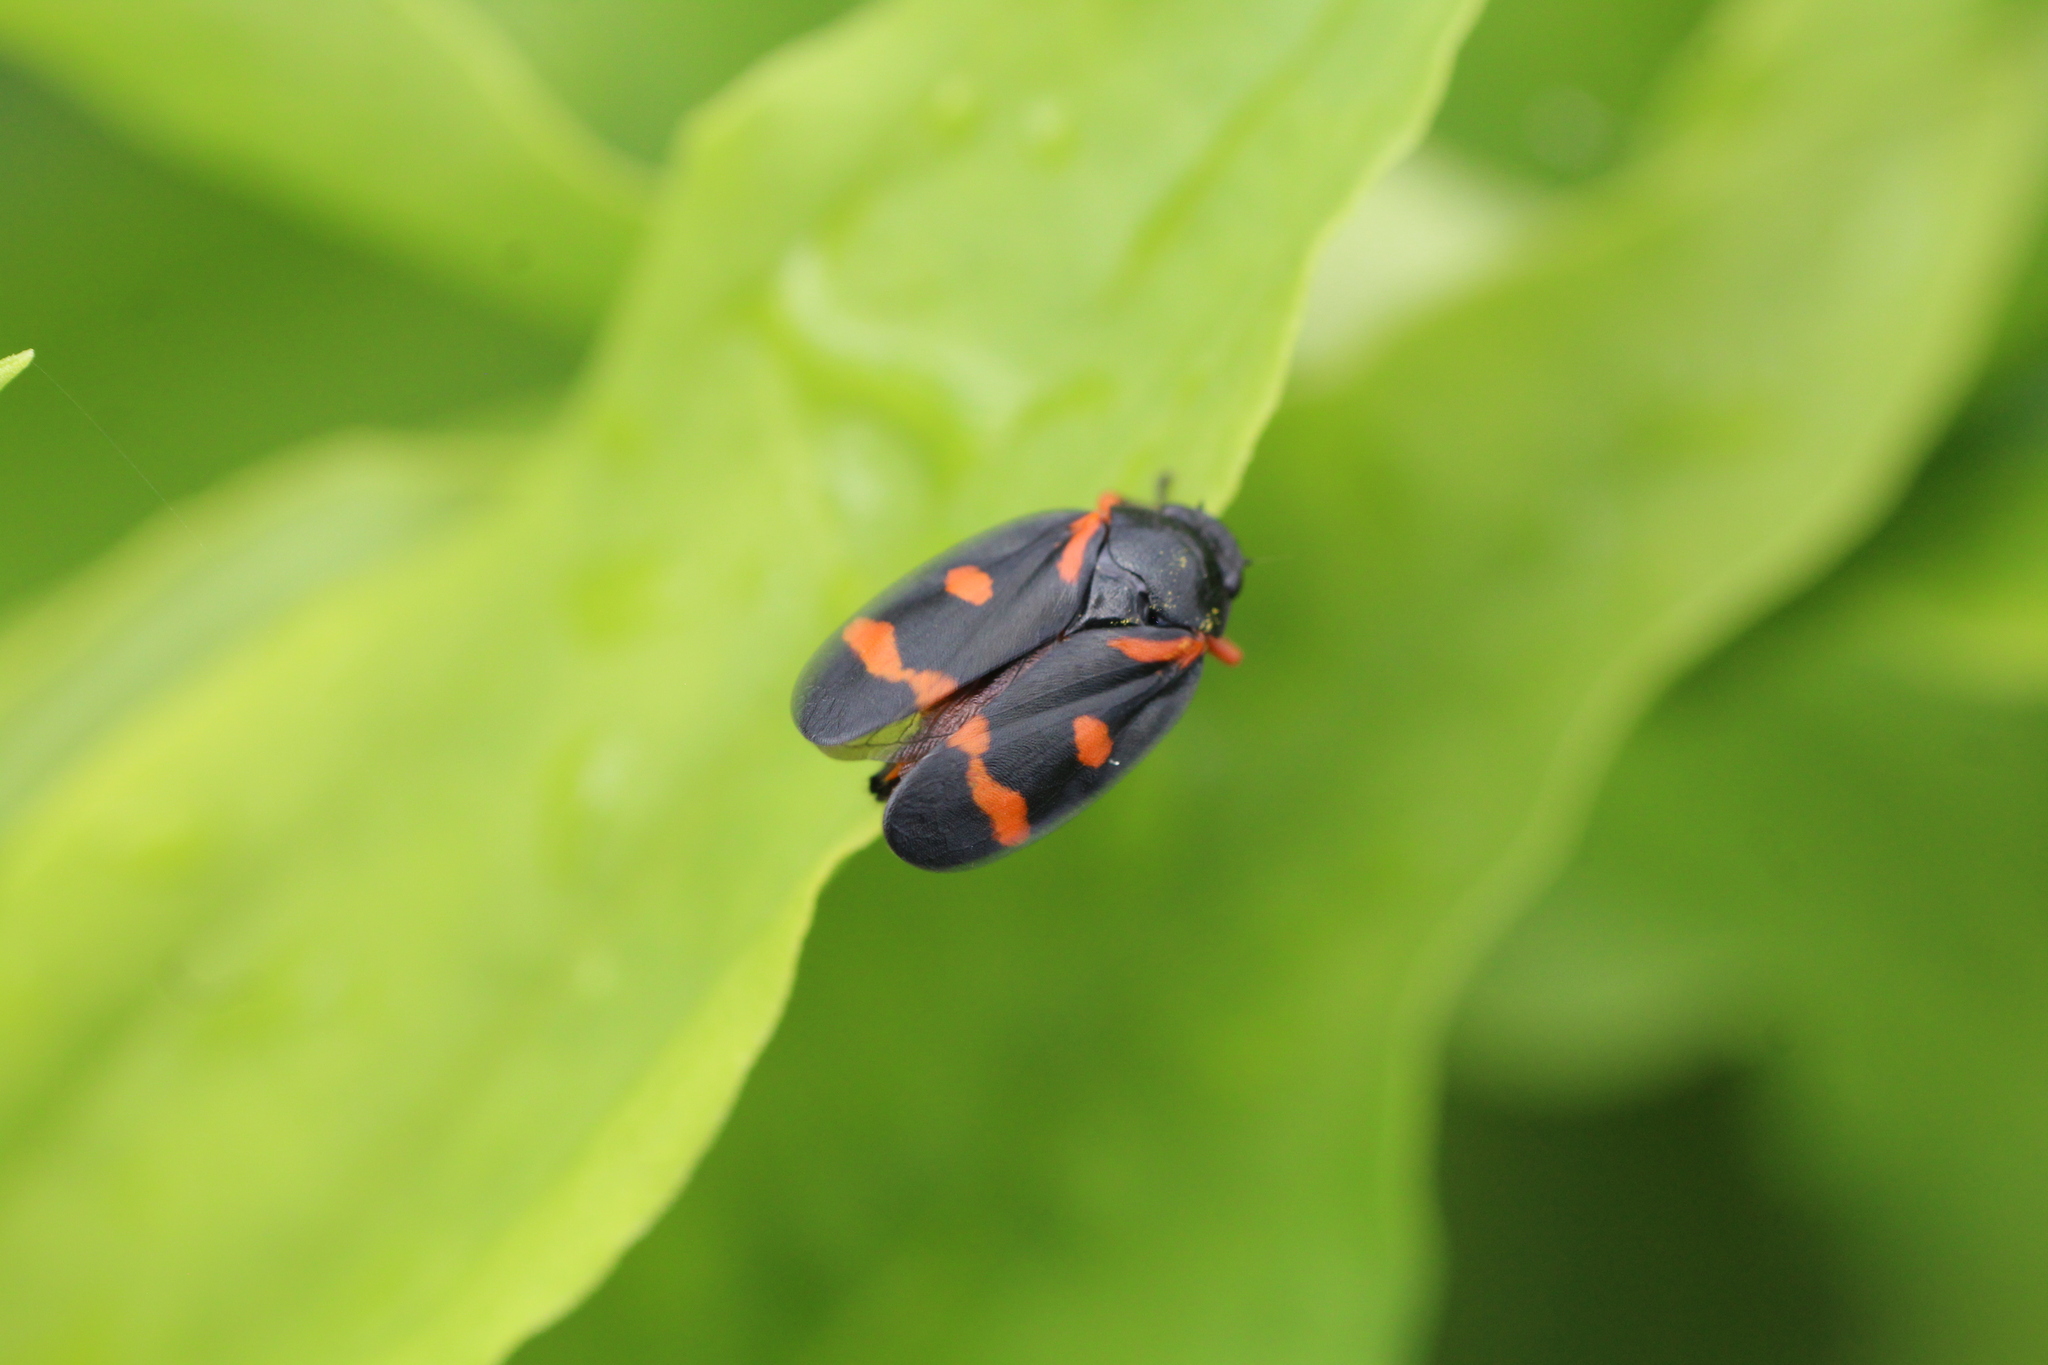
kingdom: Animalia
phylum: Arthropoda
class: Insecta
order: Hemiptera
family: Cercopidae
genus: Cercopis
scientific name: Cercopis intermedia
